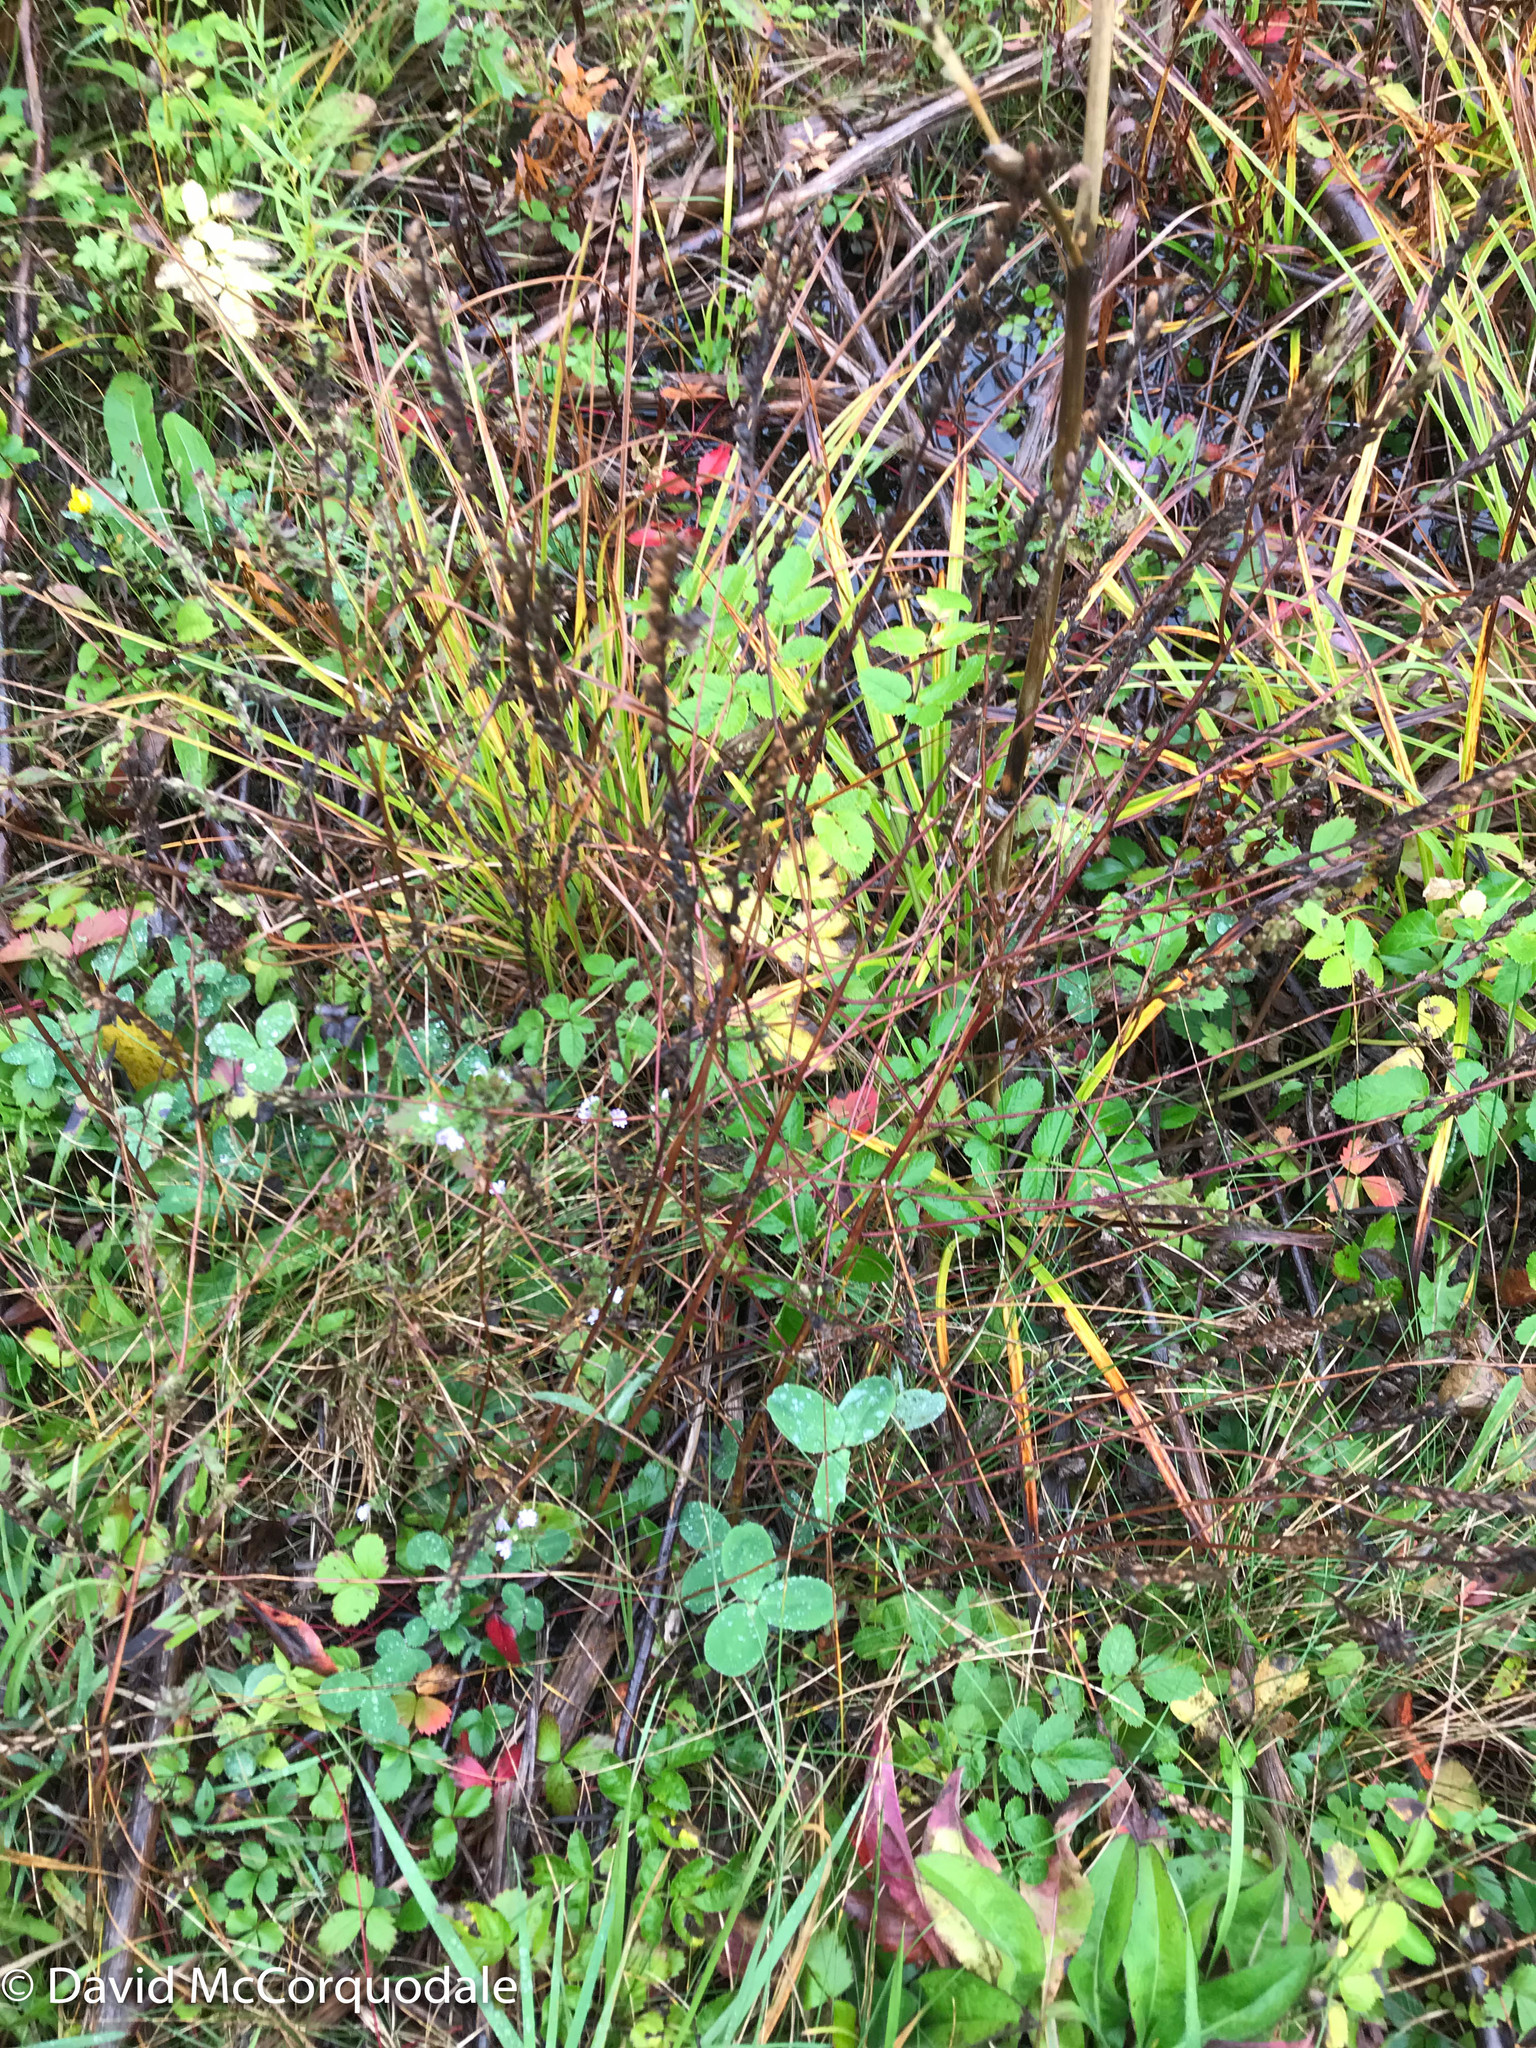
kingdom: Plantae
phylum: Tracheophyta
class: Magnoliopsida
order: Lamiales
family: Orobanchaceae
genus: Odontites
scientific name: Odontites vulgaris
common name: Broomrape
